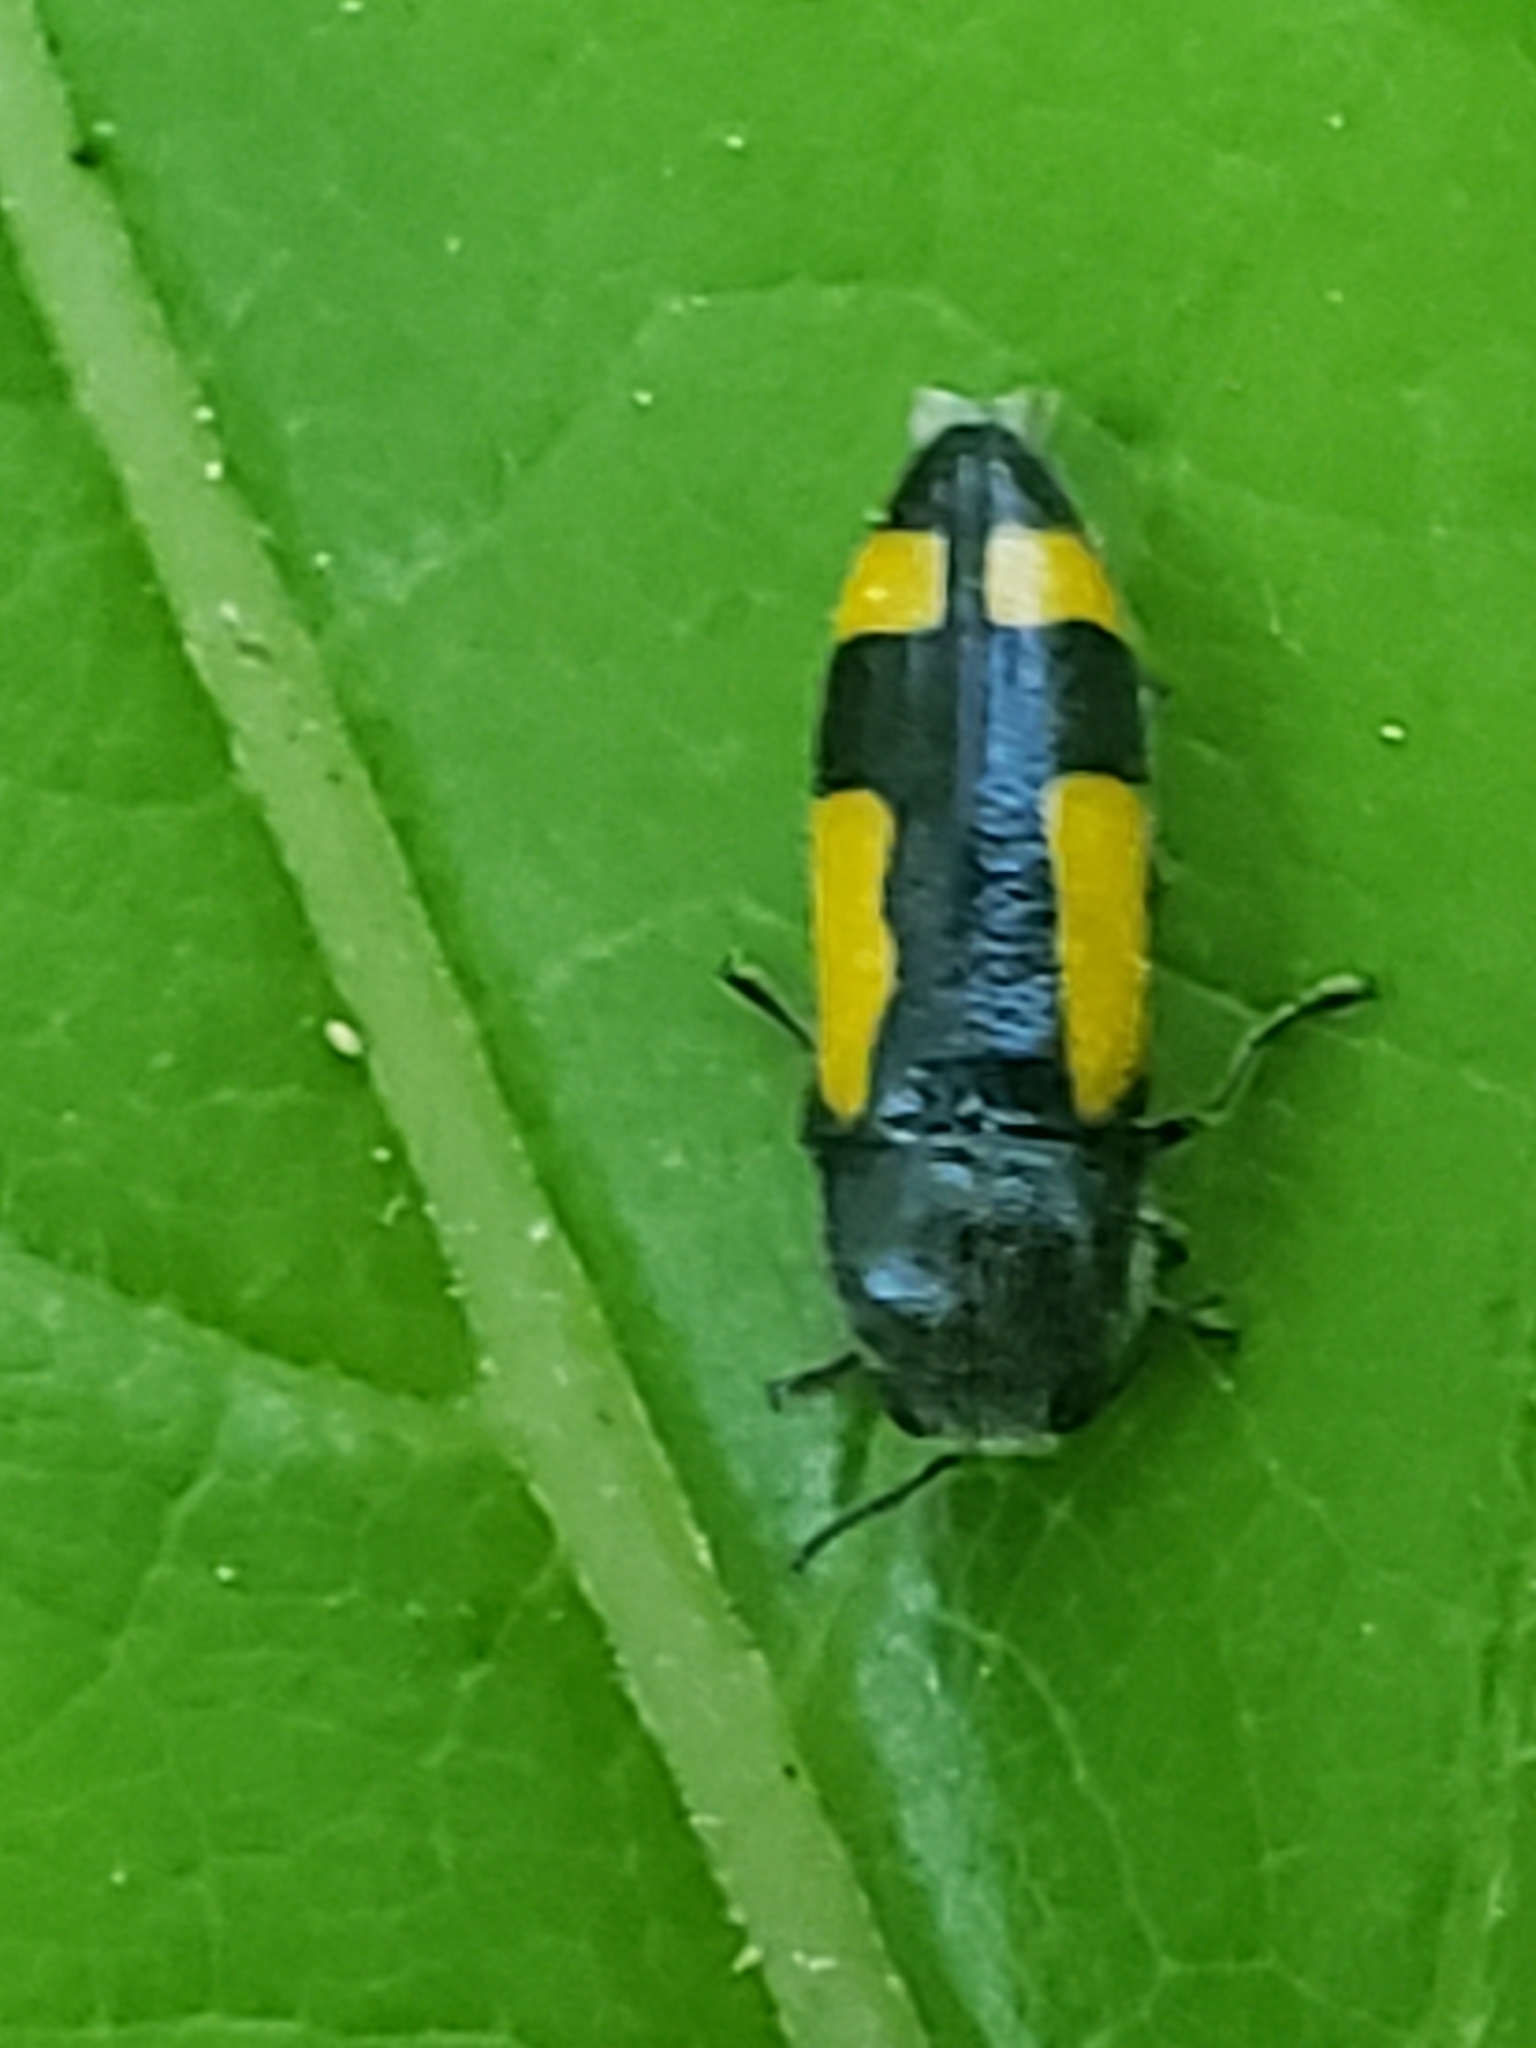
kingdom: Animalia
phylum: Arthropoda
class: Insecta
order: Coleoptera
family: Buprestidae
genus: Ptosima
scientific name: Ptosima gibbicollis
